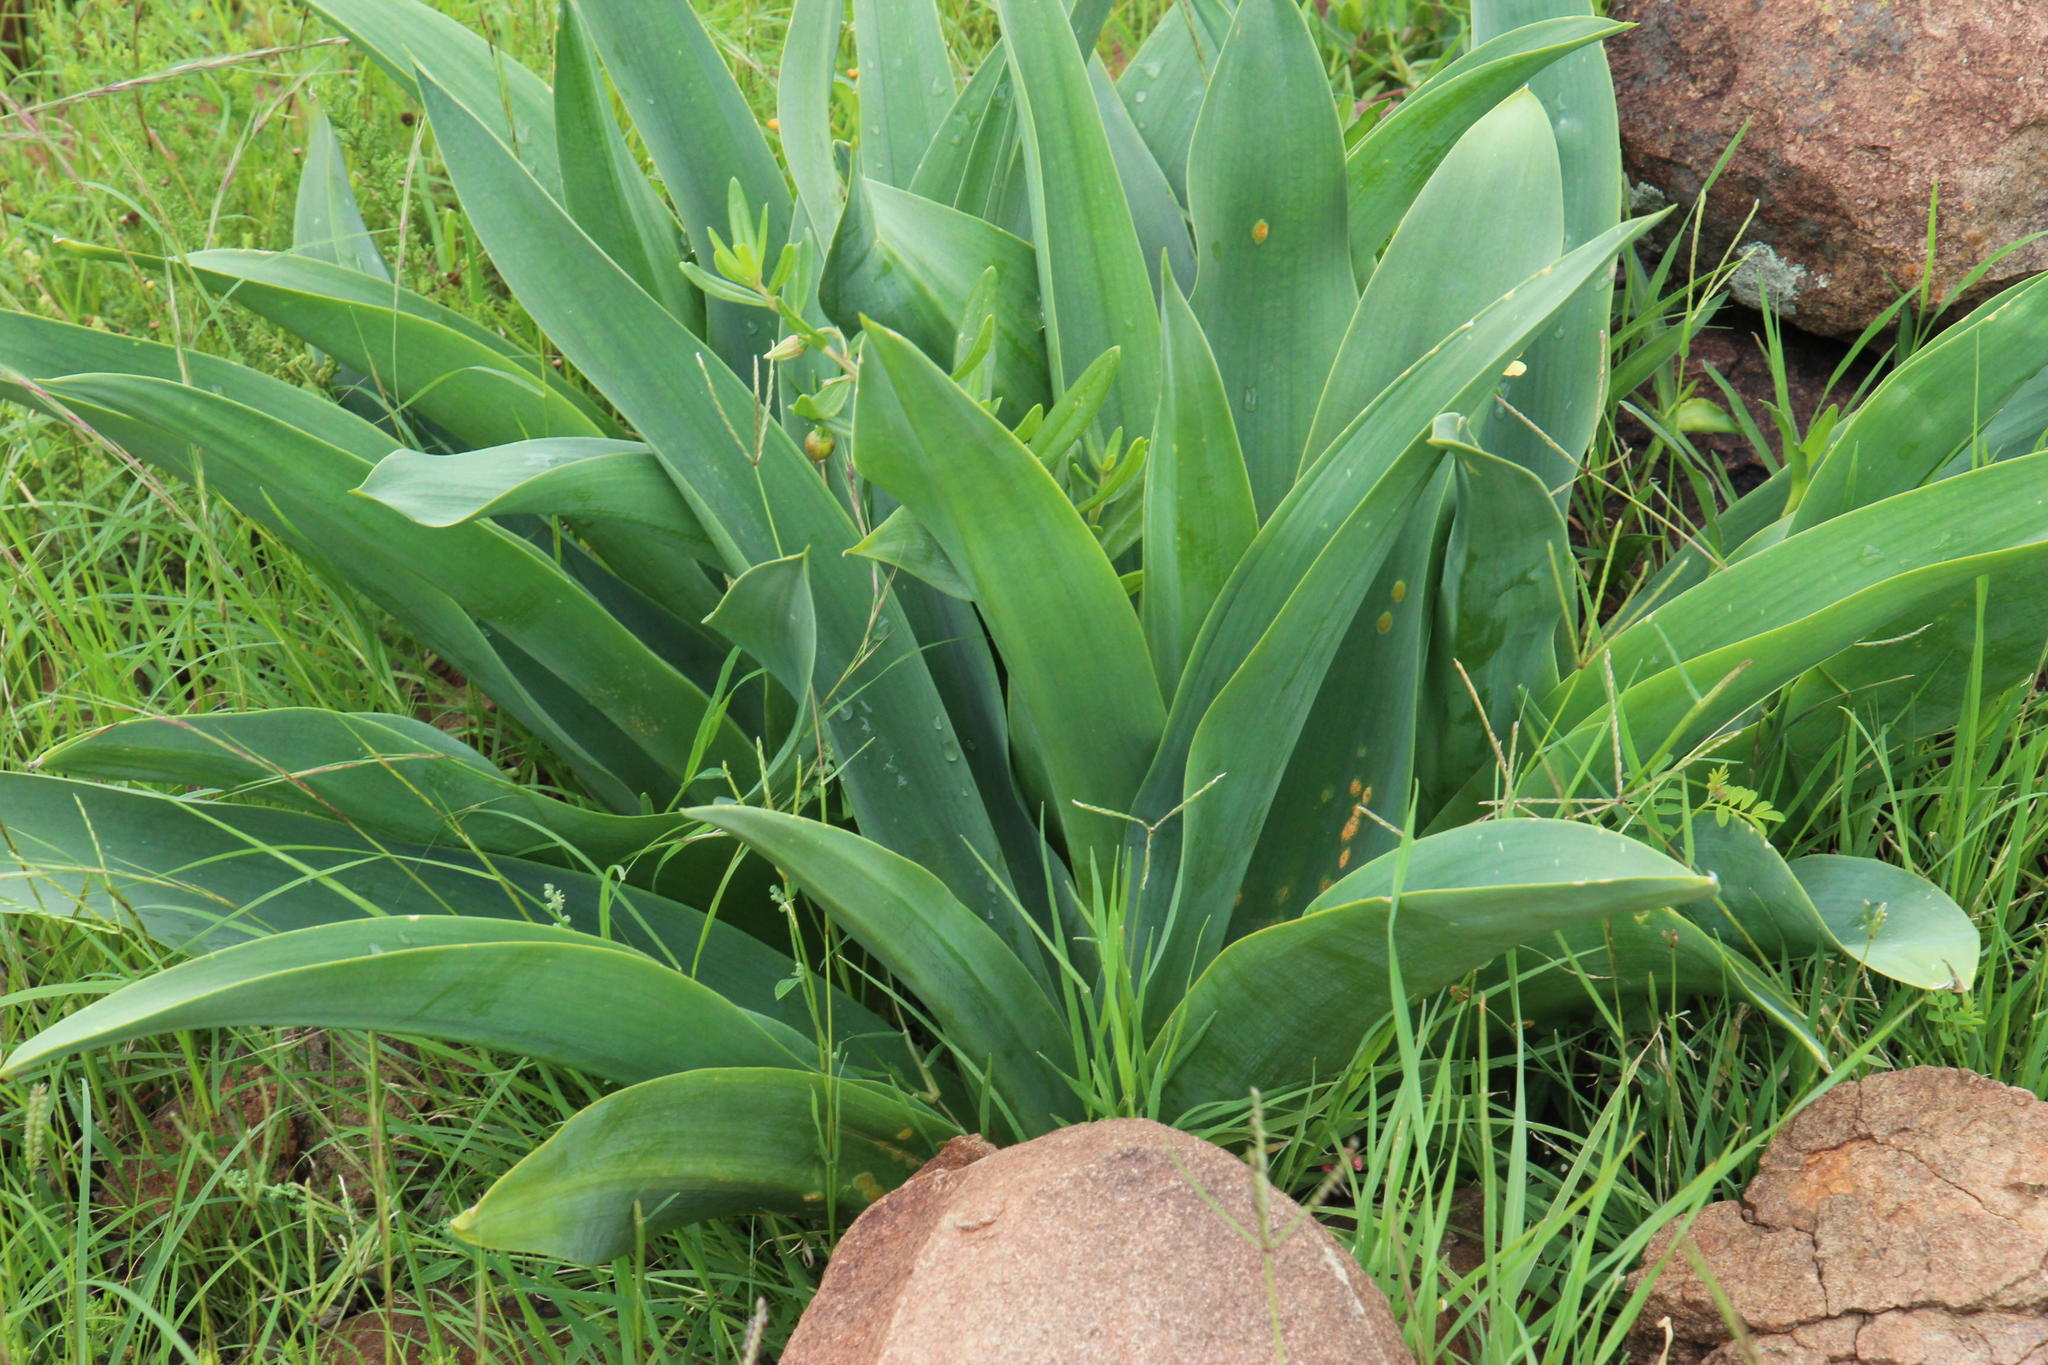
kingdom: Plantae
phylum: Tracheophyta
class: Liliopsida
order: Asparagales
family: Asparagaceae
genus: Merwilla
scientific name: Merwilla plumbea
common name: Blue-squill
